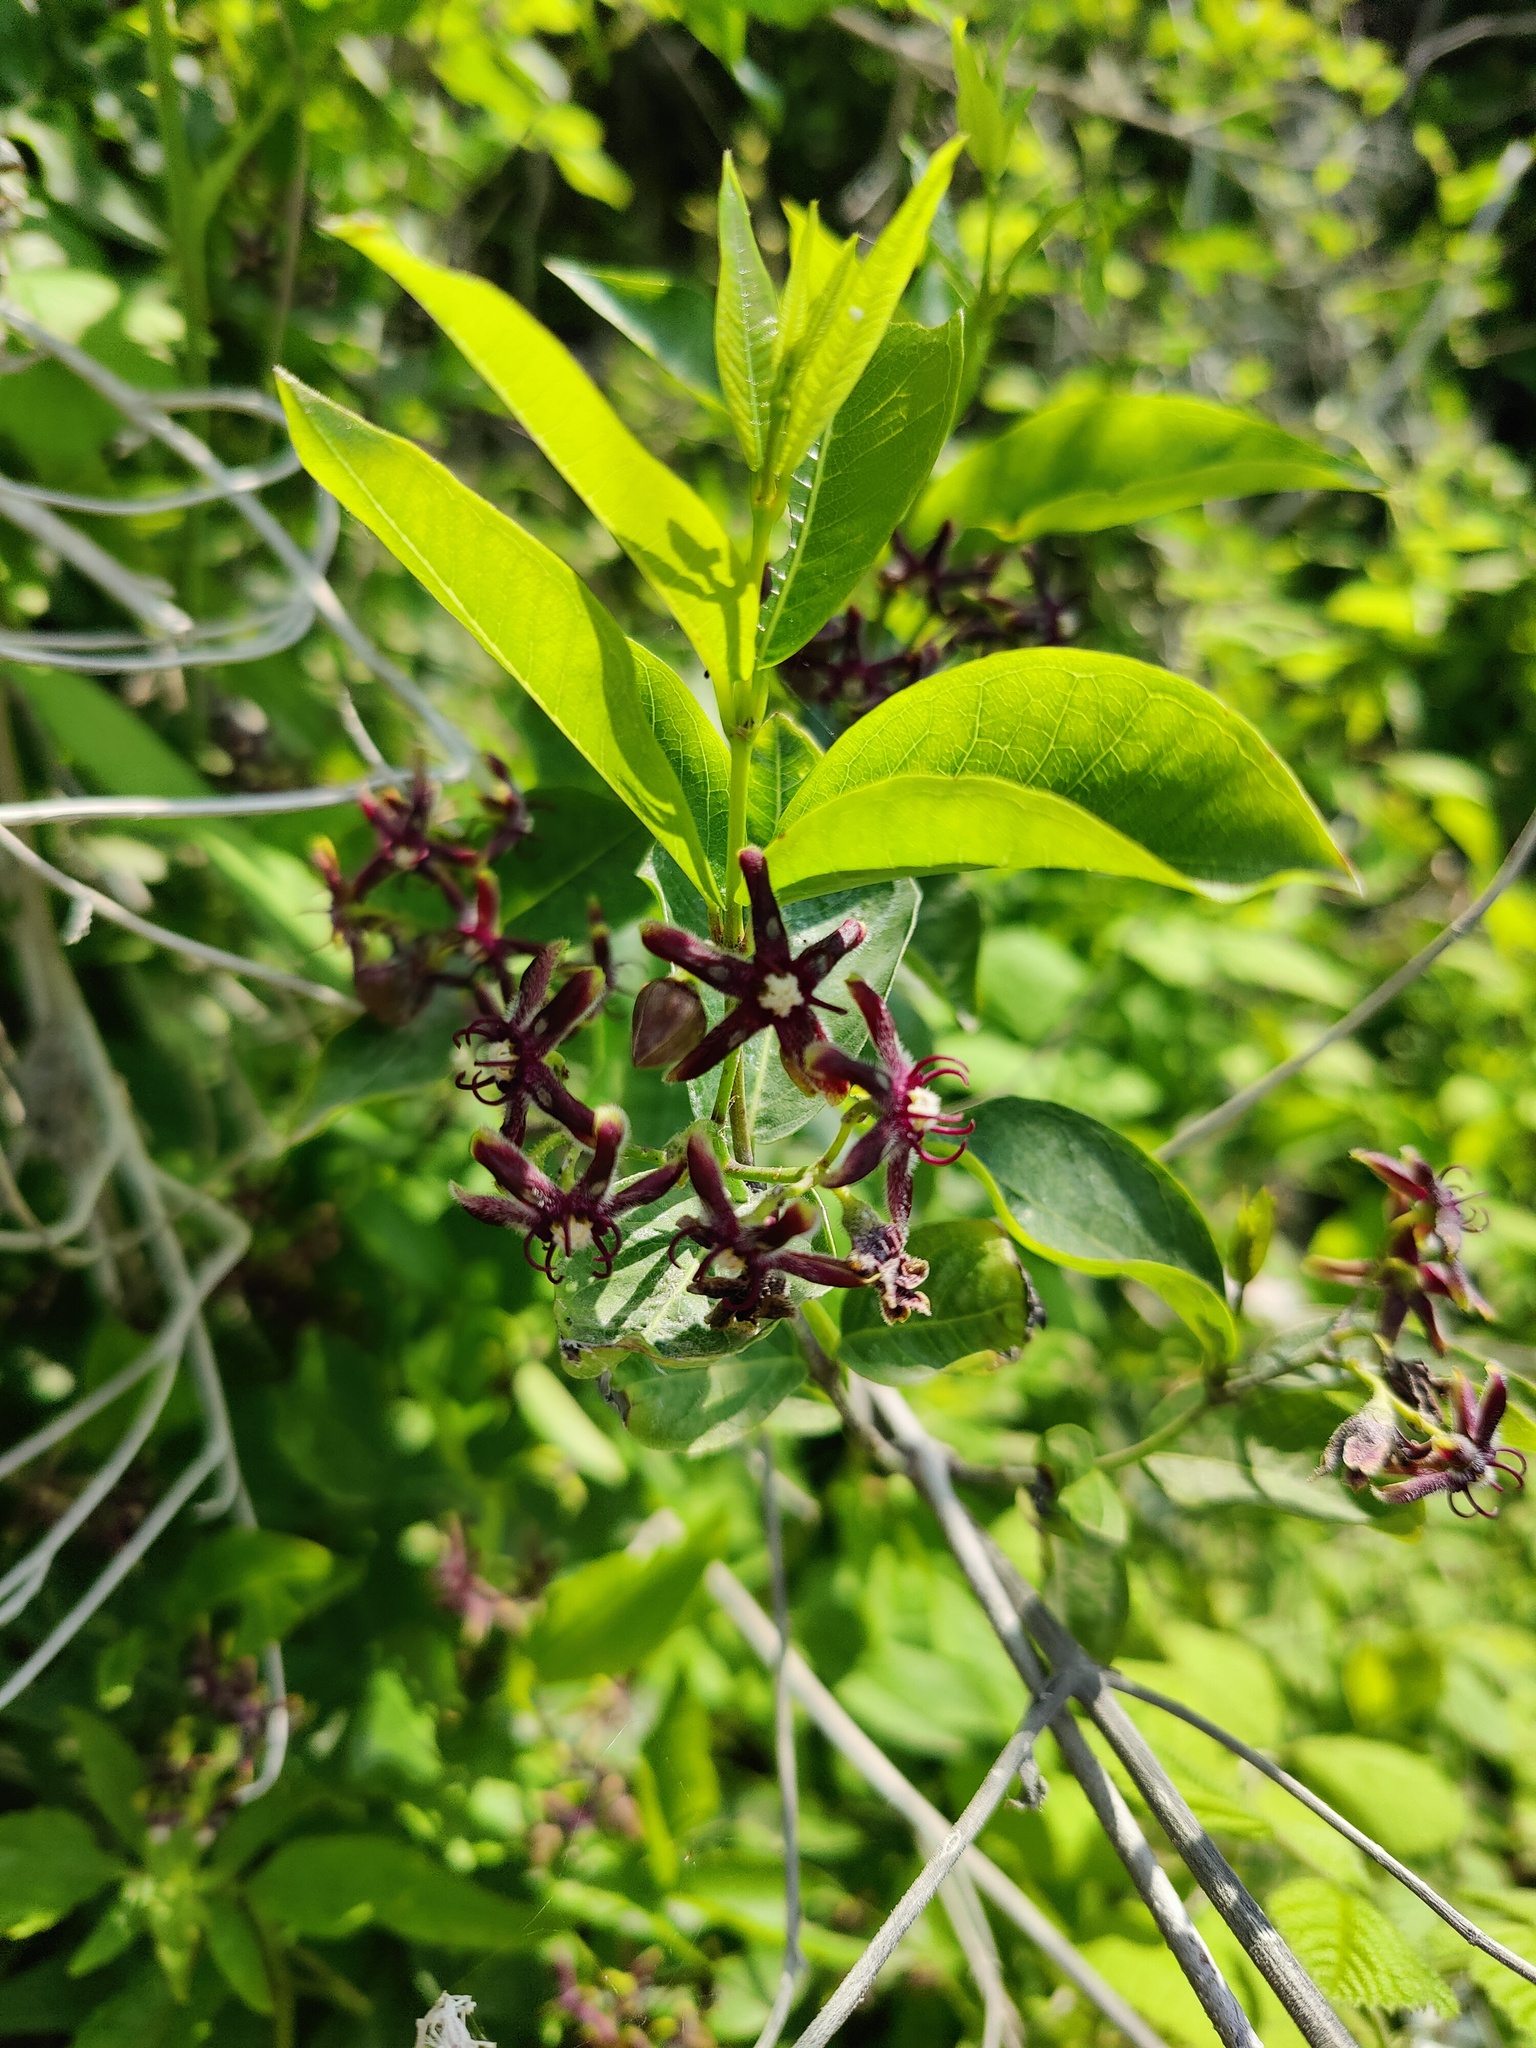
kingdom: Plantae
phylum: Tracheophyta
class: Magnoliopsida
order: Gentianales
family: Apocynaceae
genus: Periploca
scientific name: Periploca graeca
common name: Silkvine
